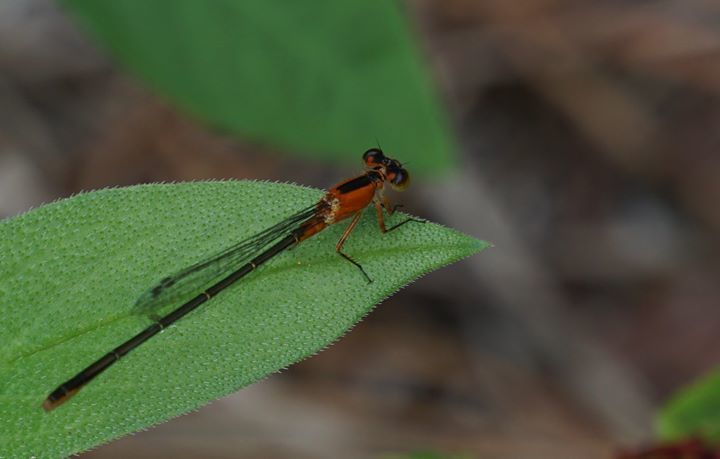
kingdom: Animalia
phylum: Arthropoda
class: Insecta
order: Odonata
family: Coenagrionidae
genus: Ischnura
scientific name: Ischnura ramburii
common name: Rambur's forktail
